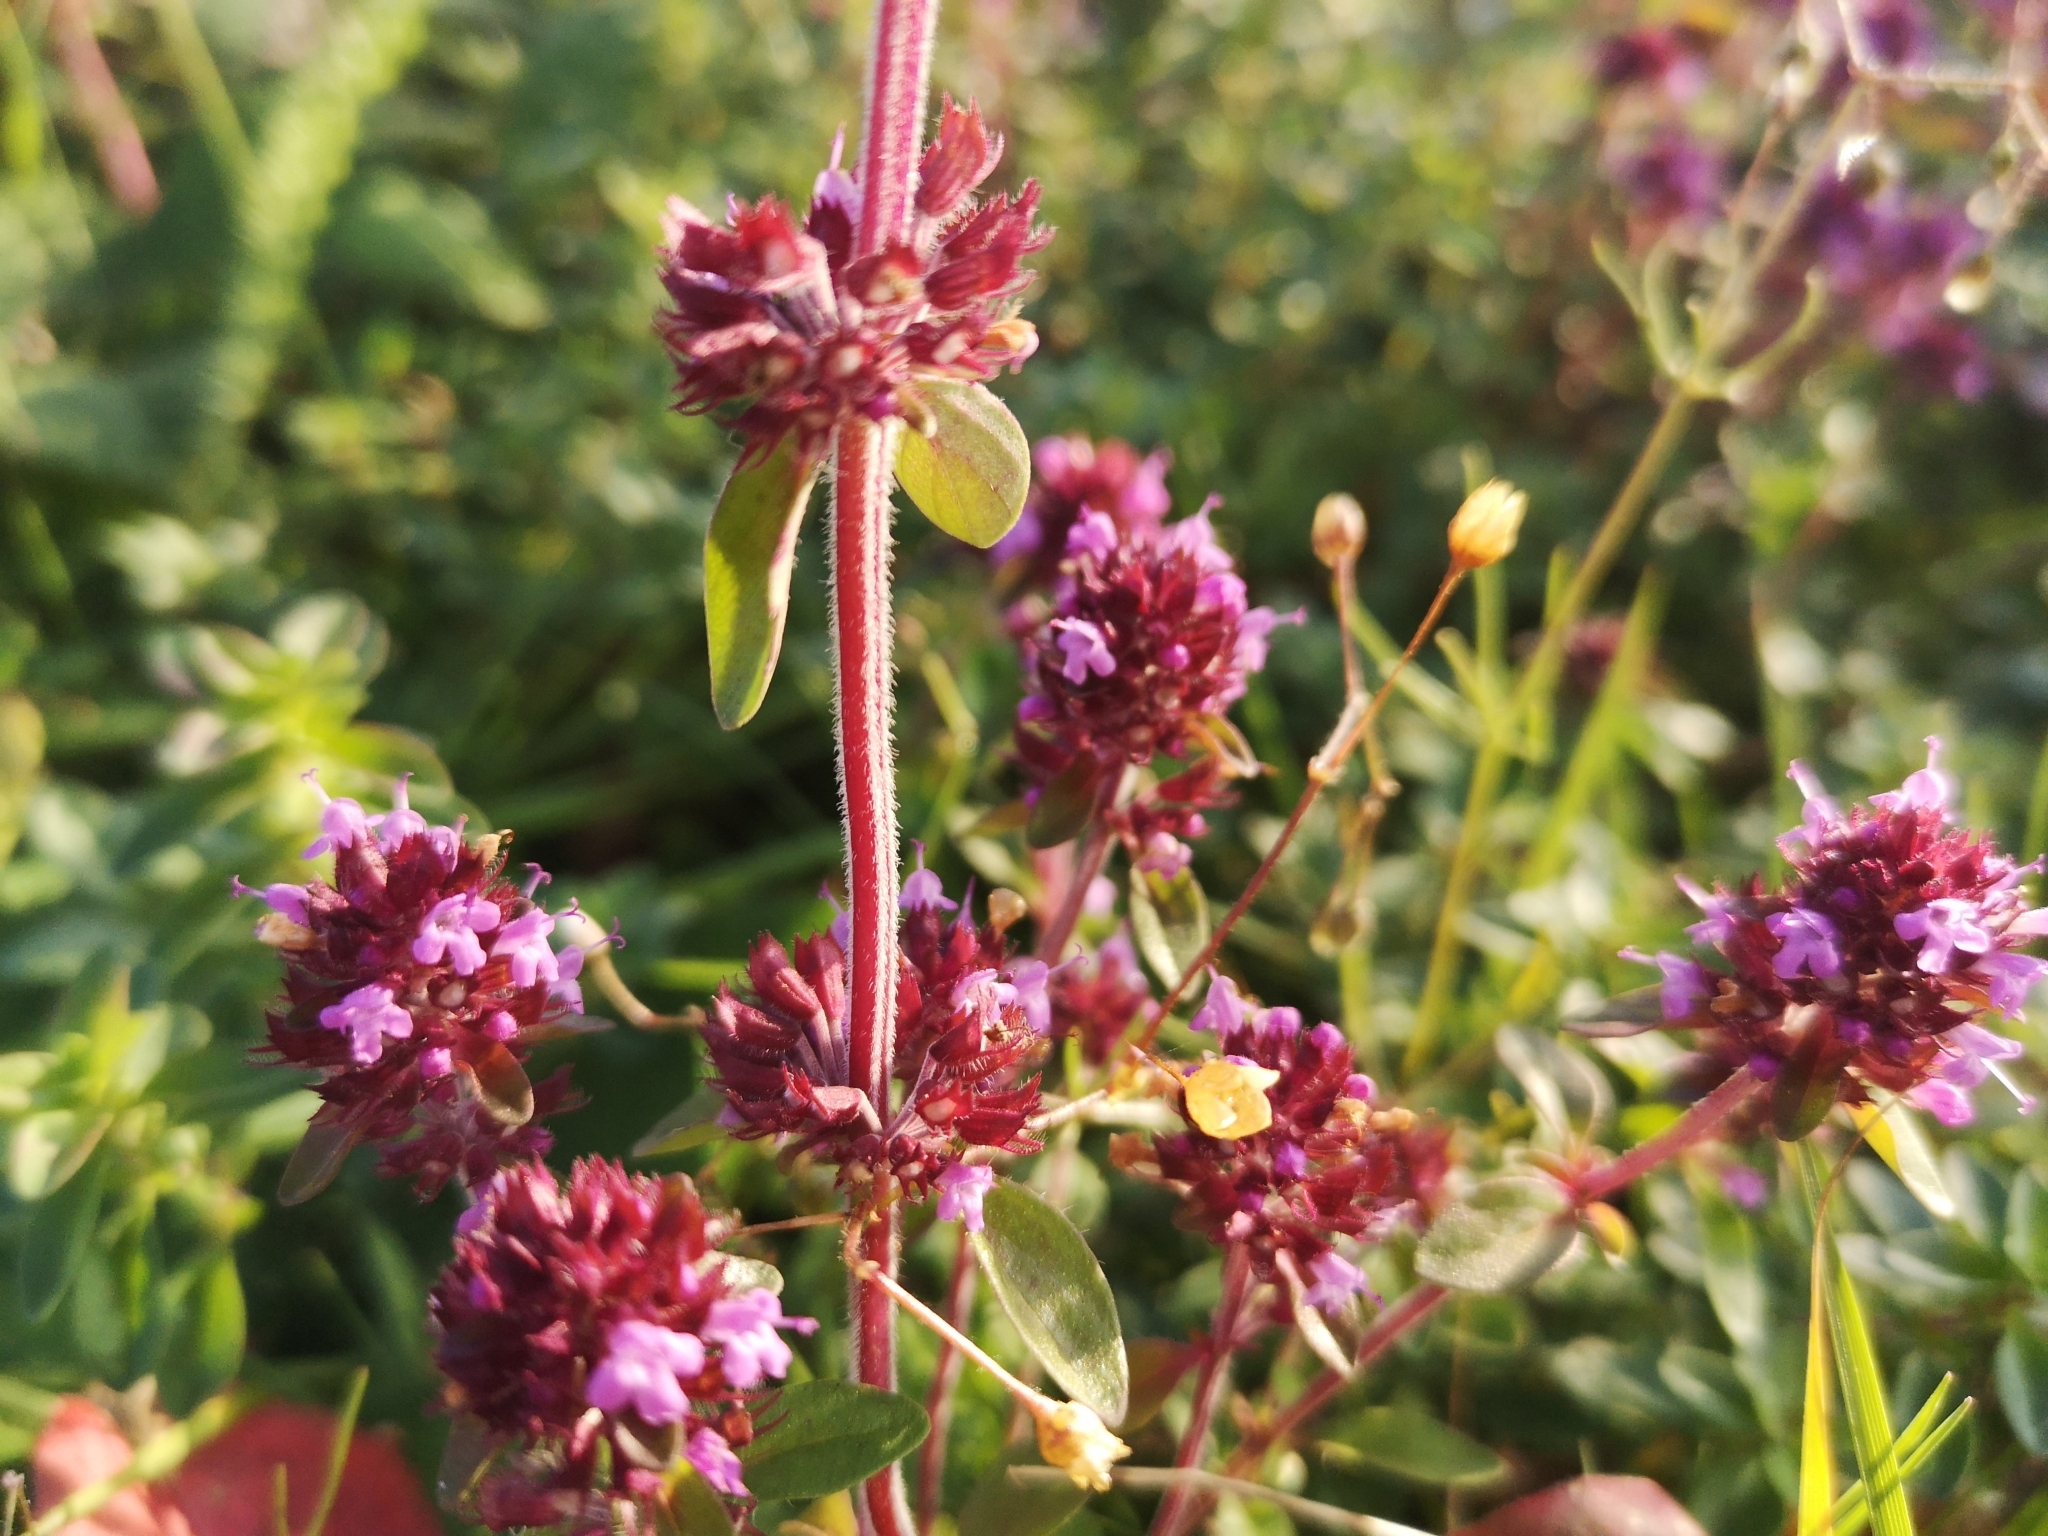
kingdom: Plantae
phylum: Tracheophyta
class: Magnoliopsida
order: Lamiales
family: Lamiaceae
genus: Thymus
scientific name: Thymus pulegioides
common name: Large thyme
